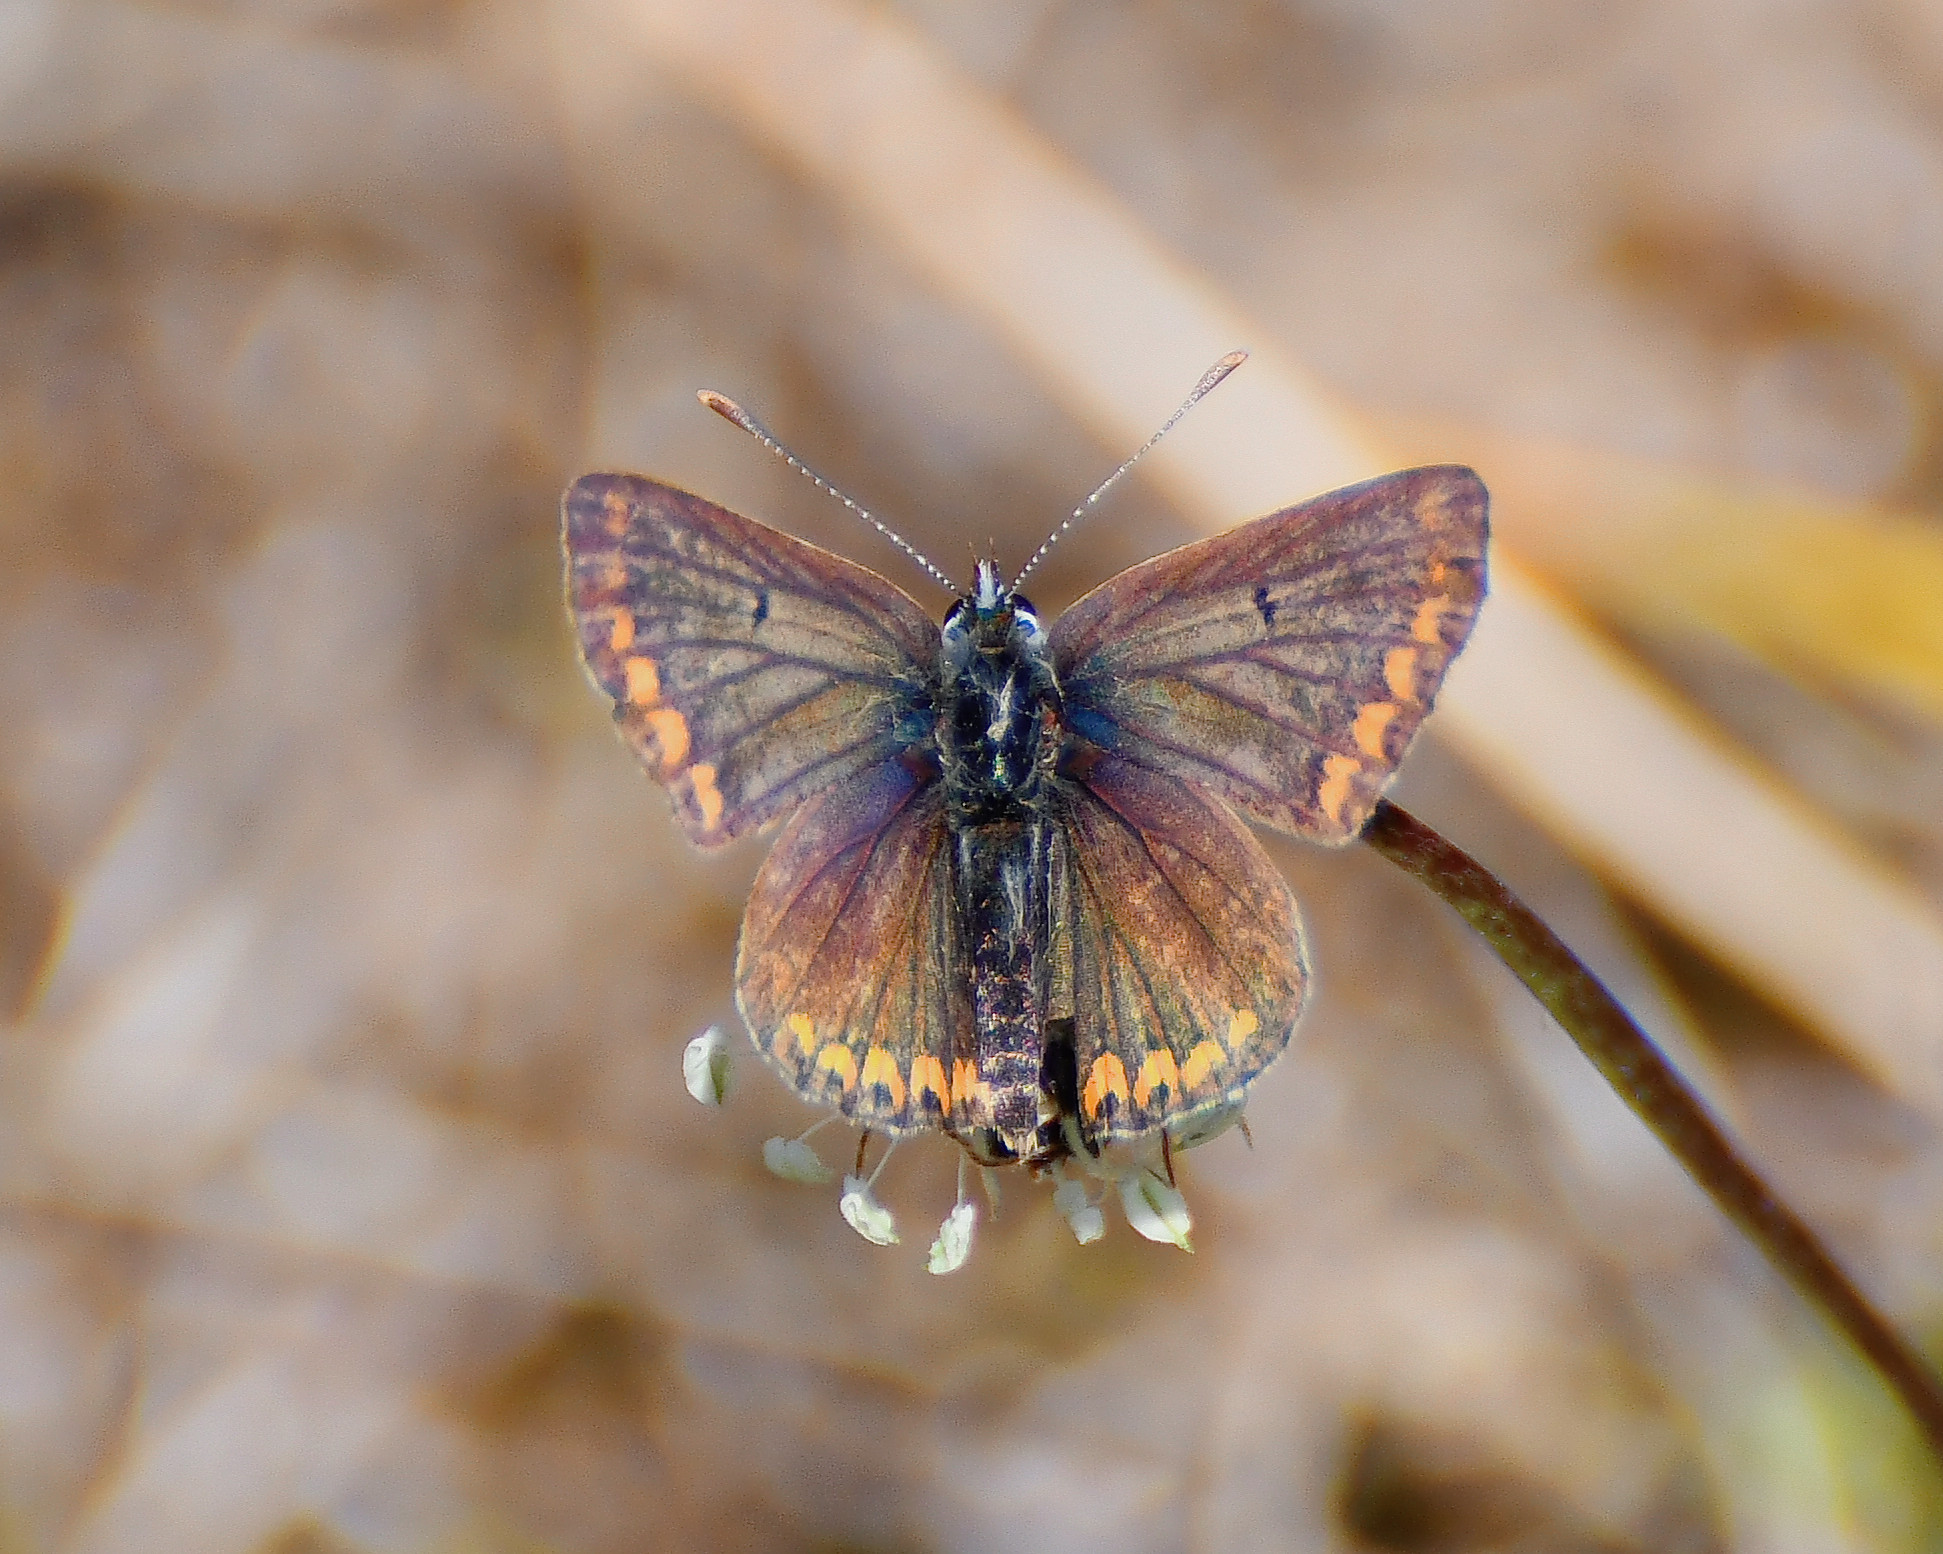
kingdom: Animalia
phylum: Arthropoda
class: Insecta
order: Lepidoptera
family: Lycaenidae
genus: Aricia
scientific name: Aricia agestis
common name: Brown argus
